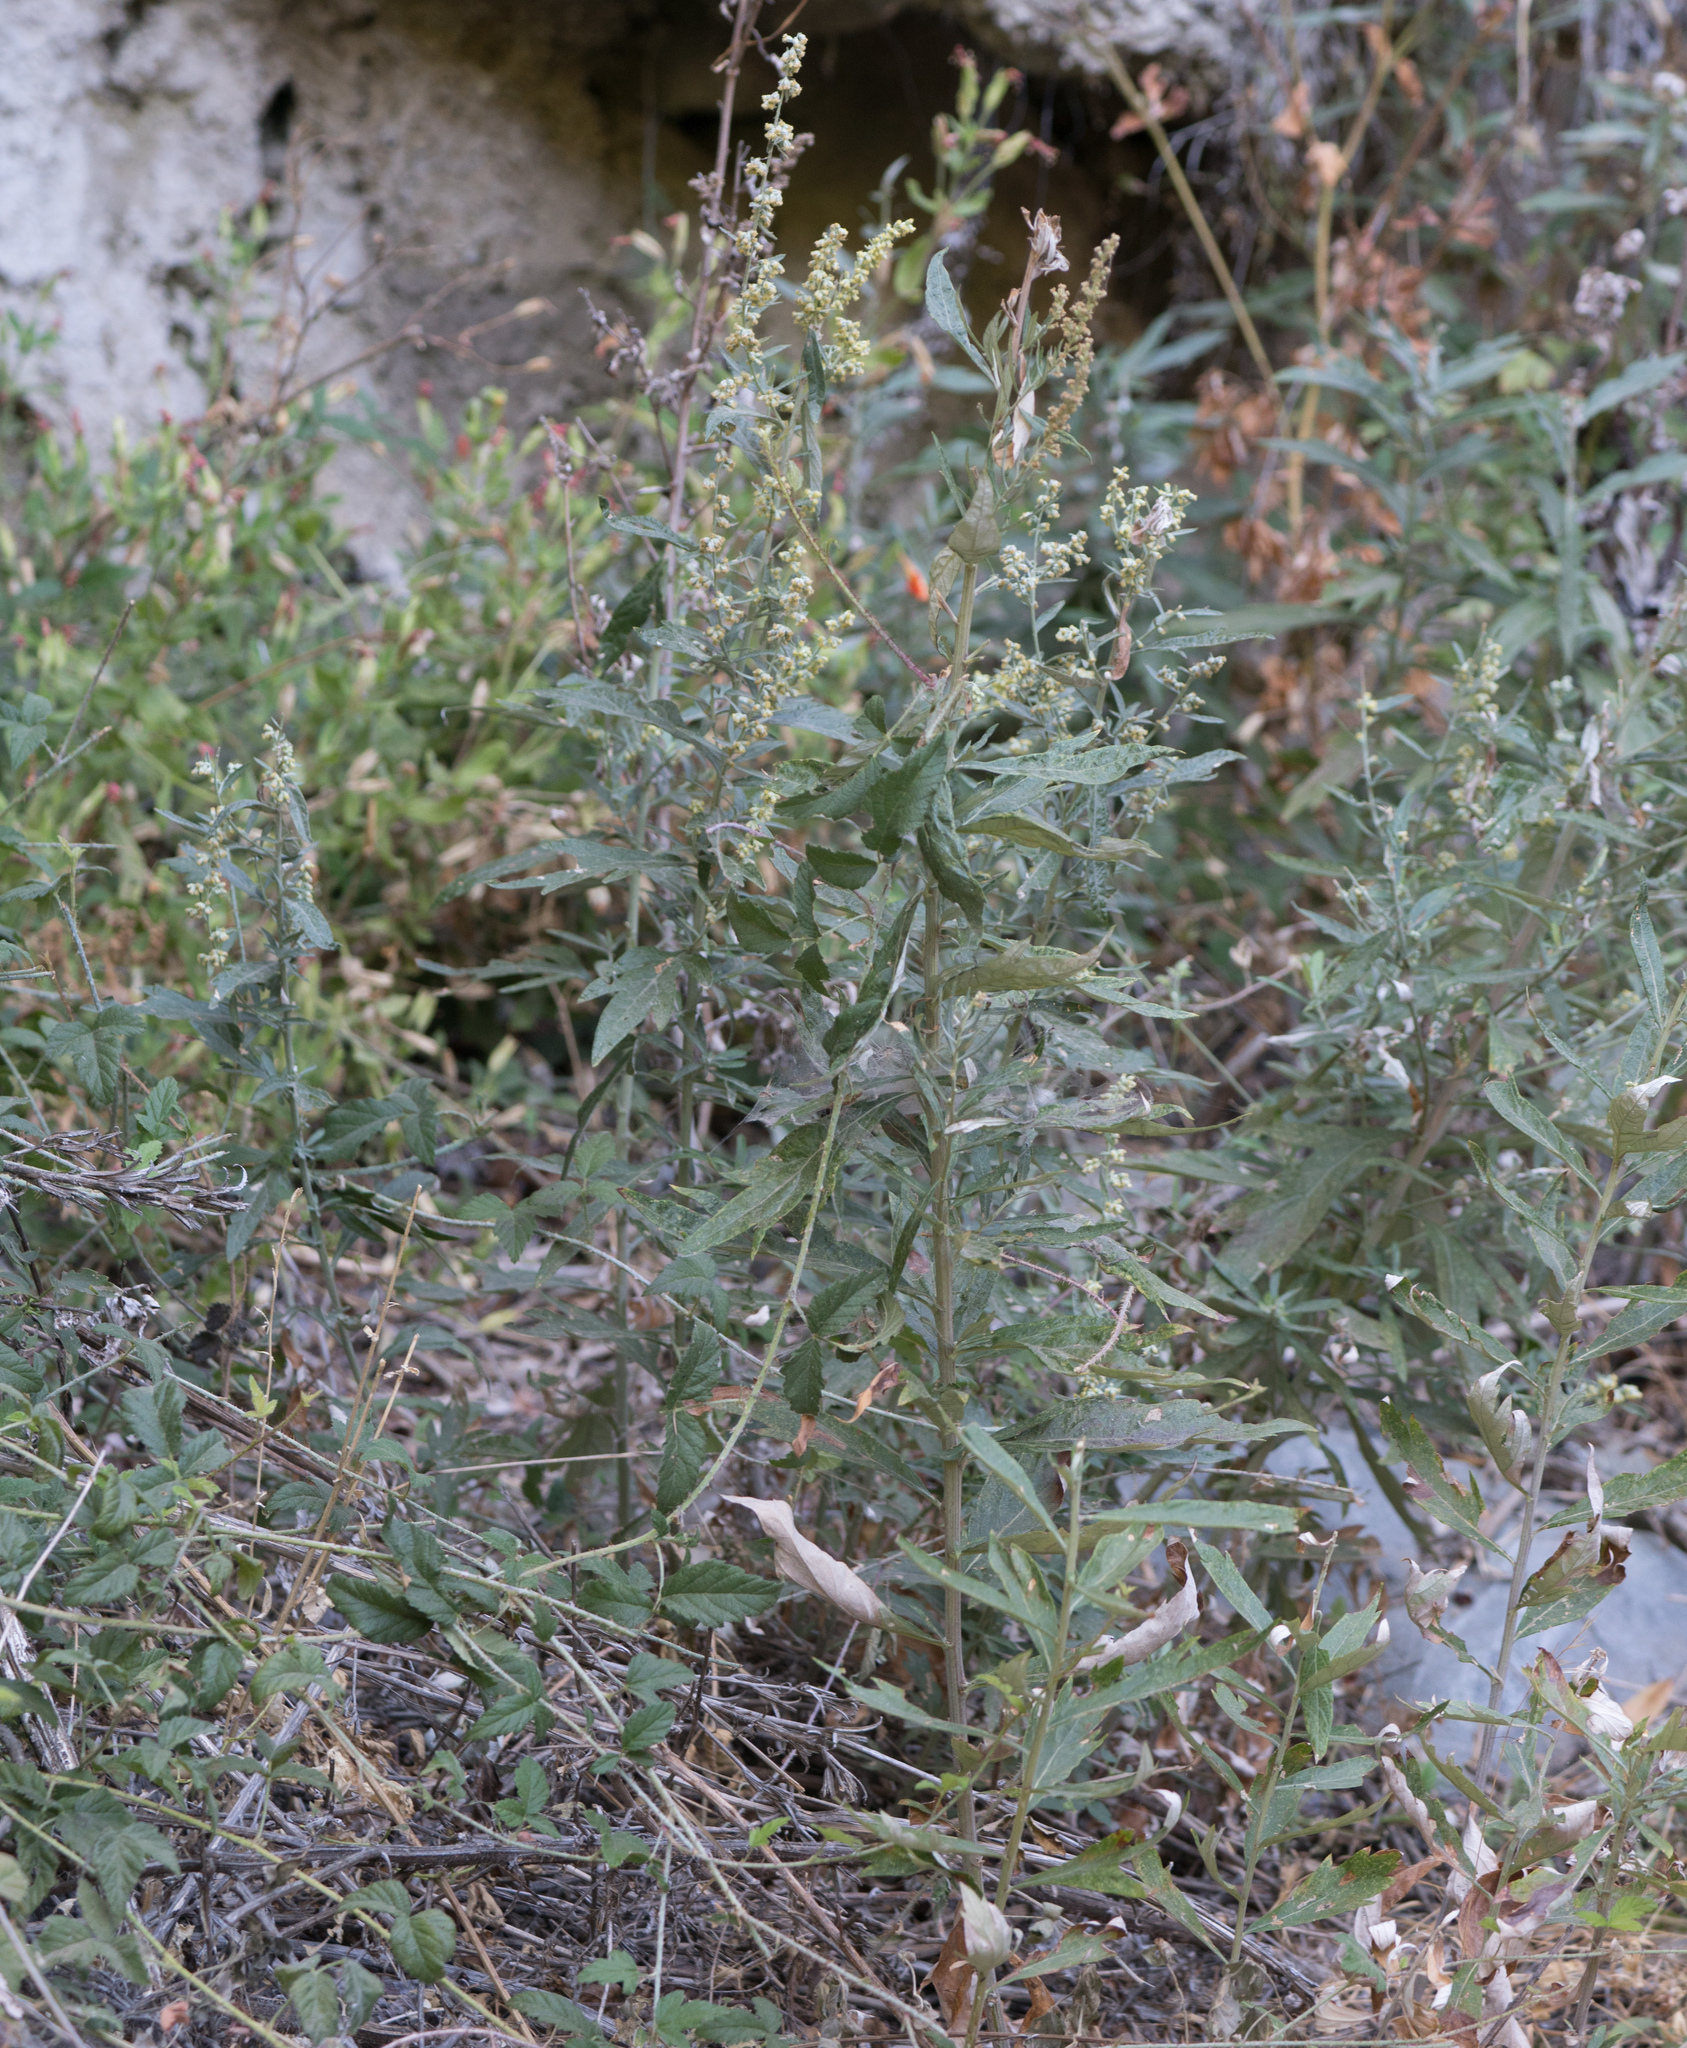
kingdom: Plantae
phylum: Tracheophyta
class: Magnoliopsida
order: Asterales
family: Asteraceae
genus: Artemisia
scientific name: Artemisia douglasiana
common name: Northwest mugwort
